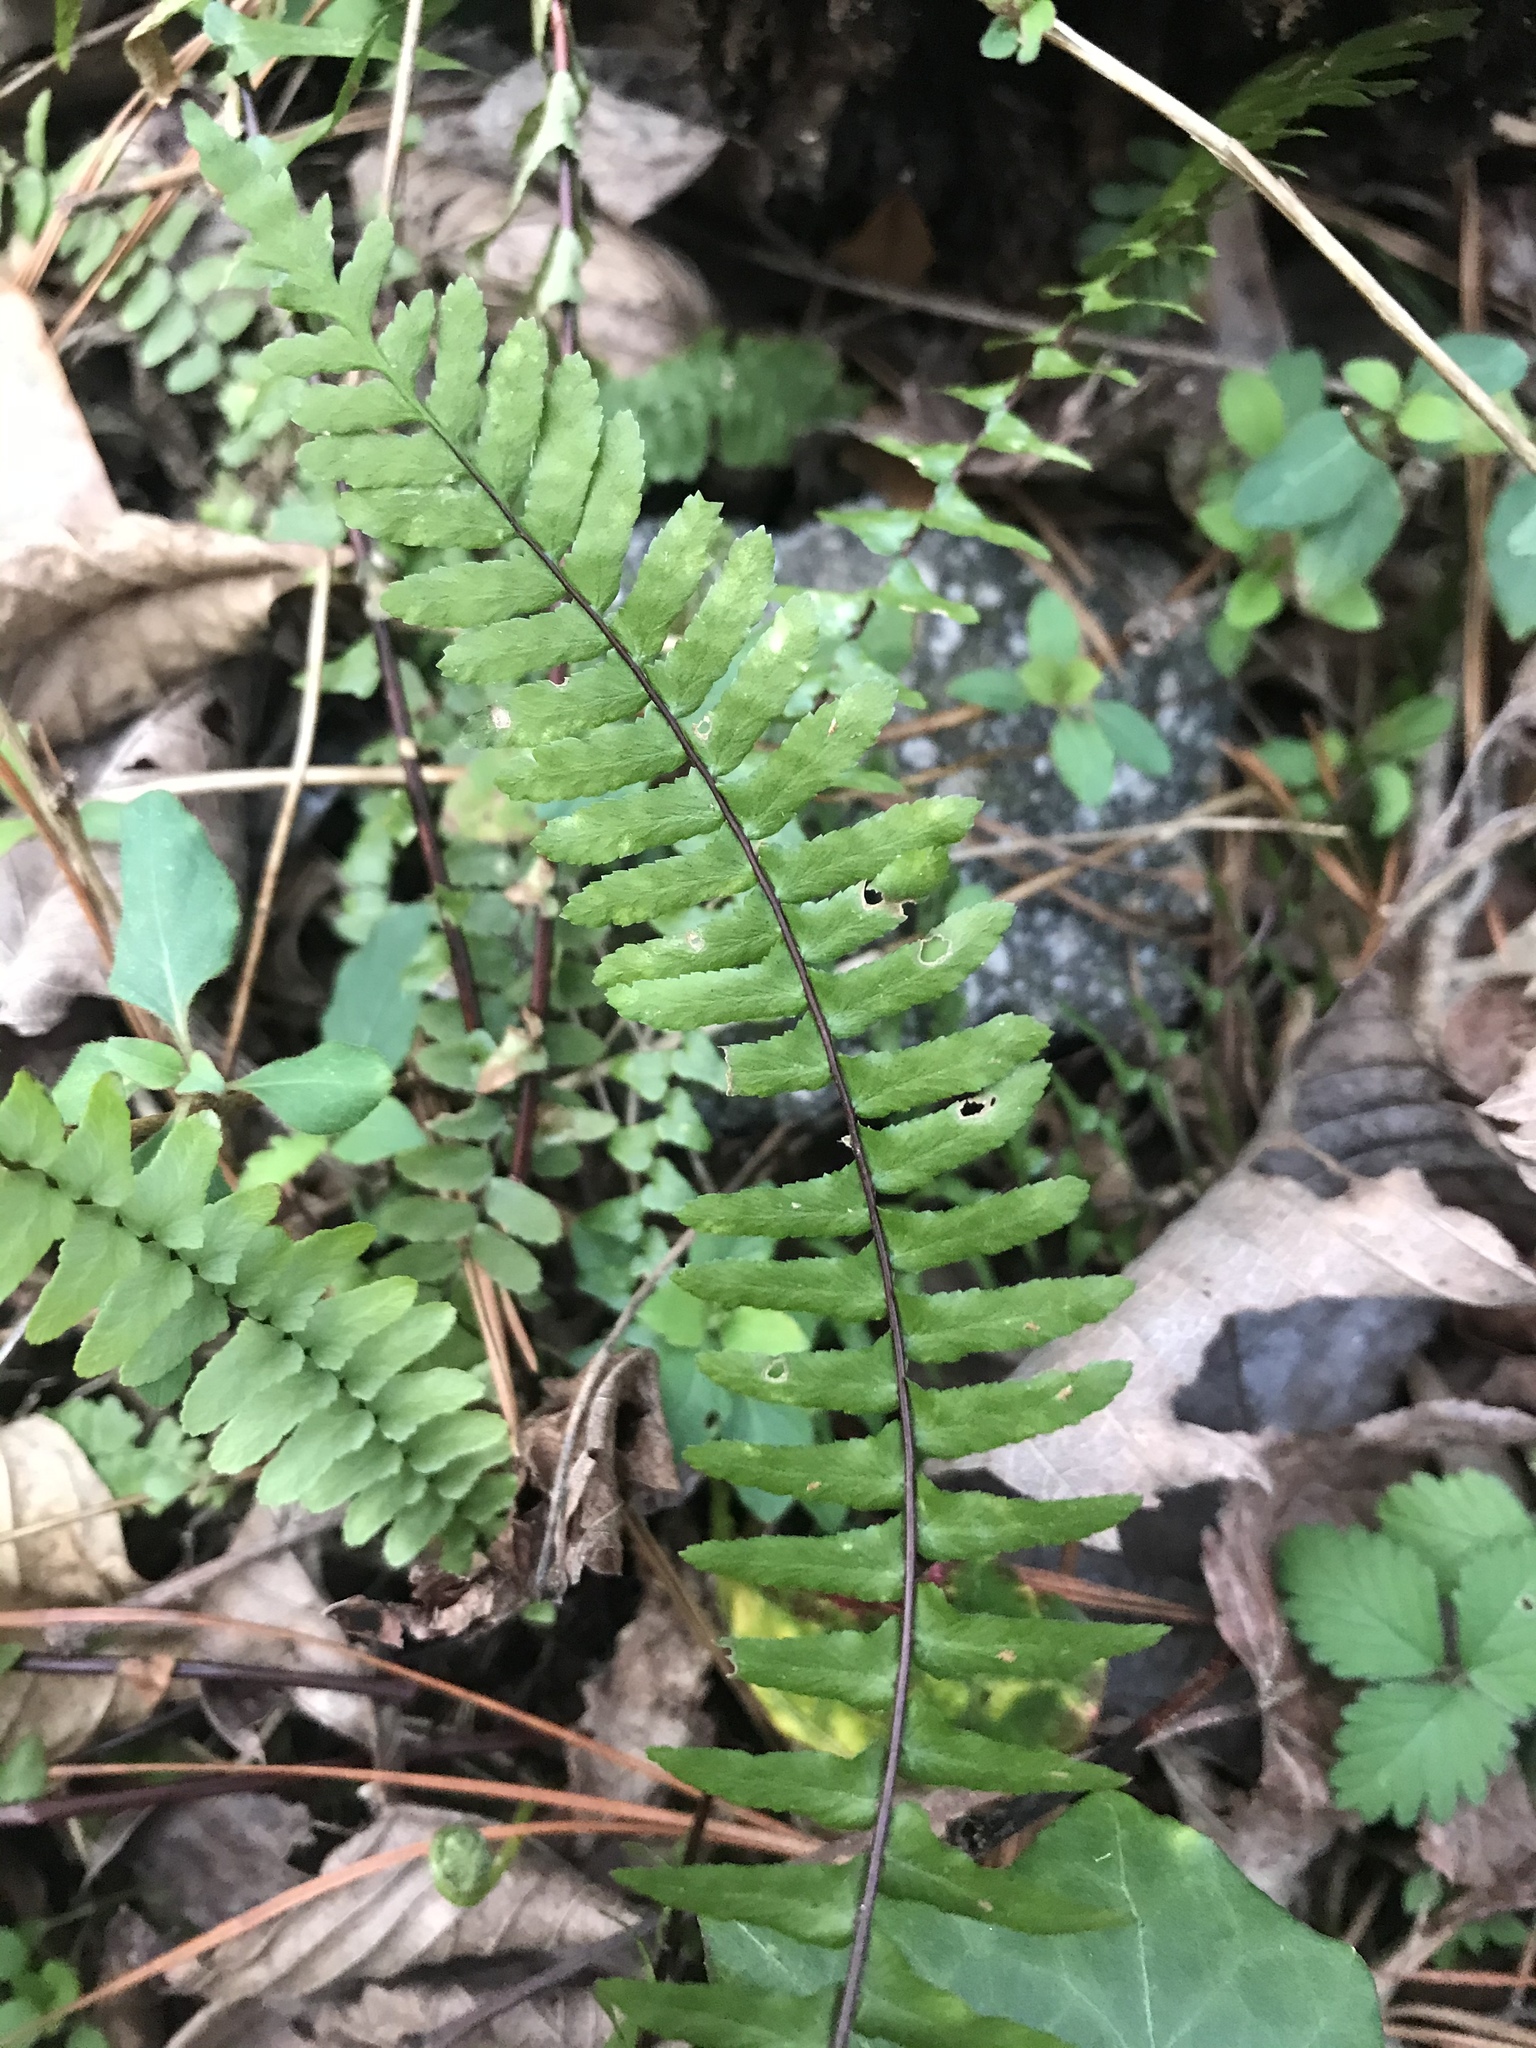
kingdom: Plantae
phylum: Tracheophyta
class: Polypodiopsida
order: Polypodiales
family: Aspleniaceae
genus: Asplenium
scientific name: Asplenium platyneuron
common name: Ebony spleenwort
